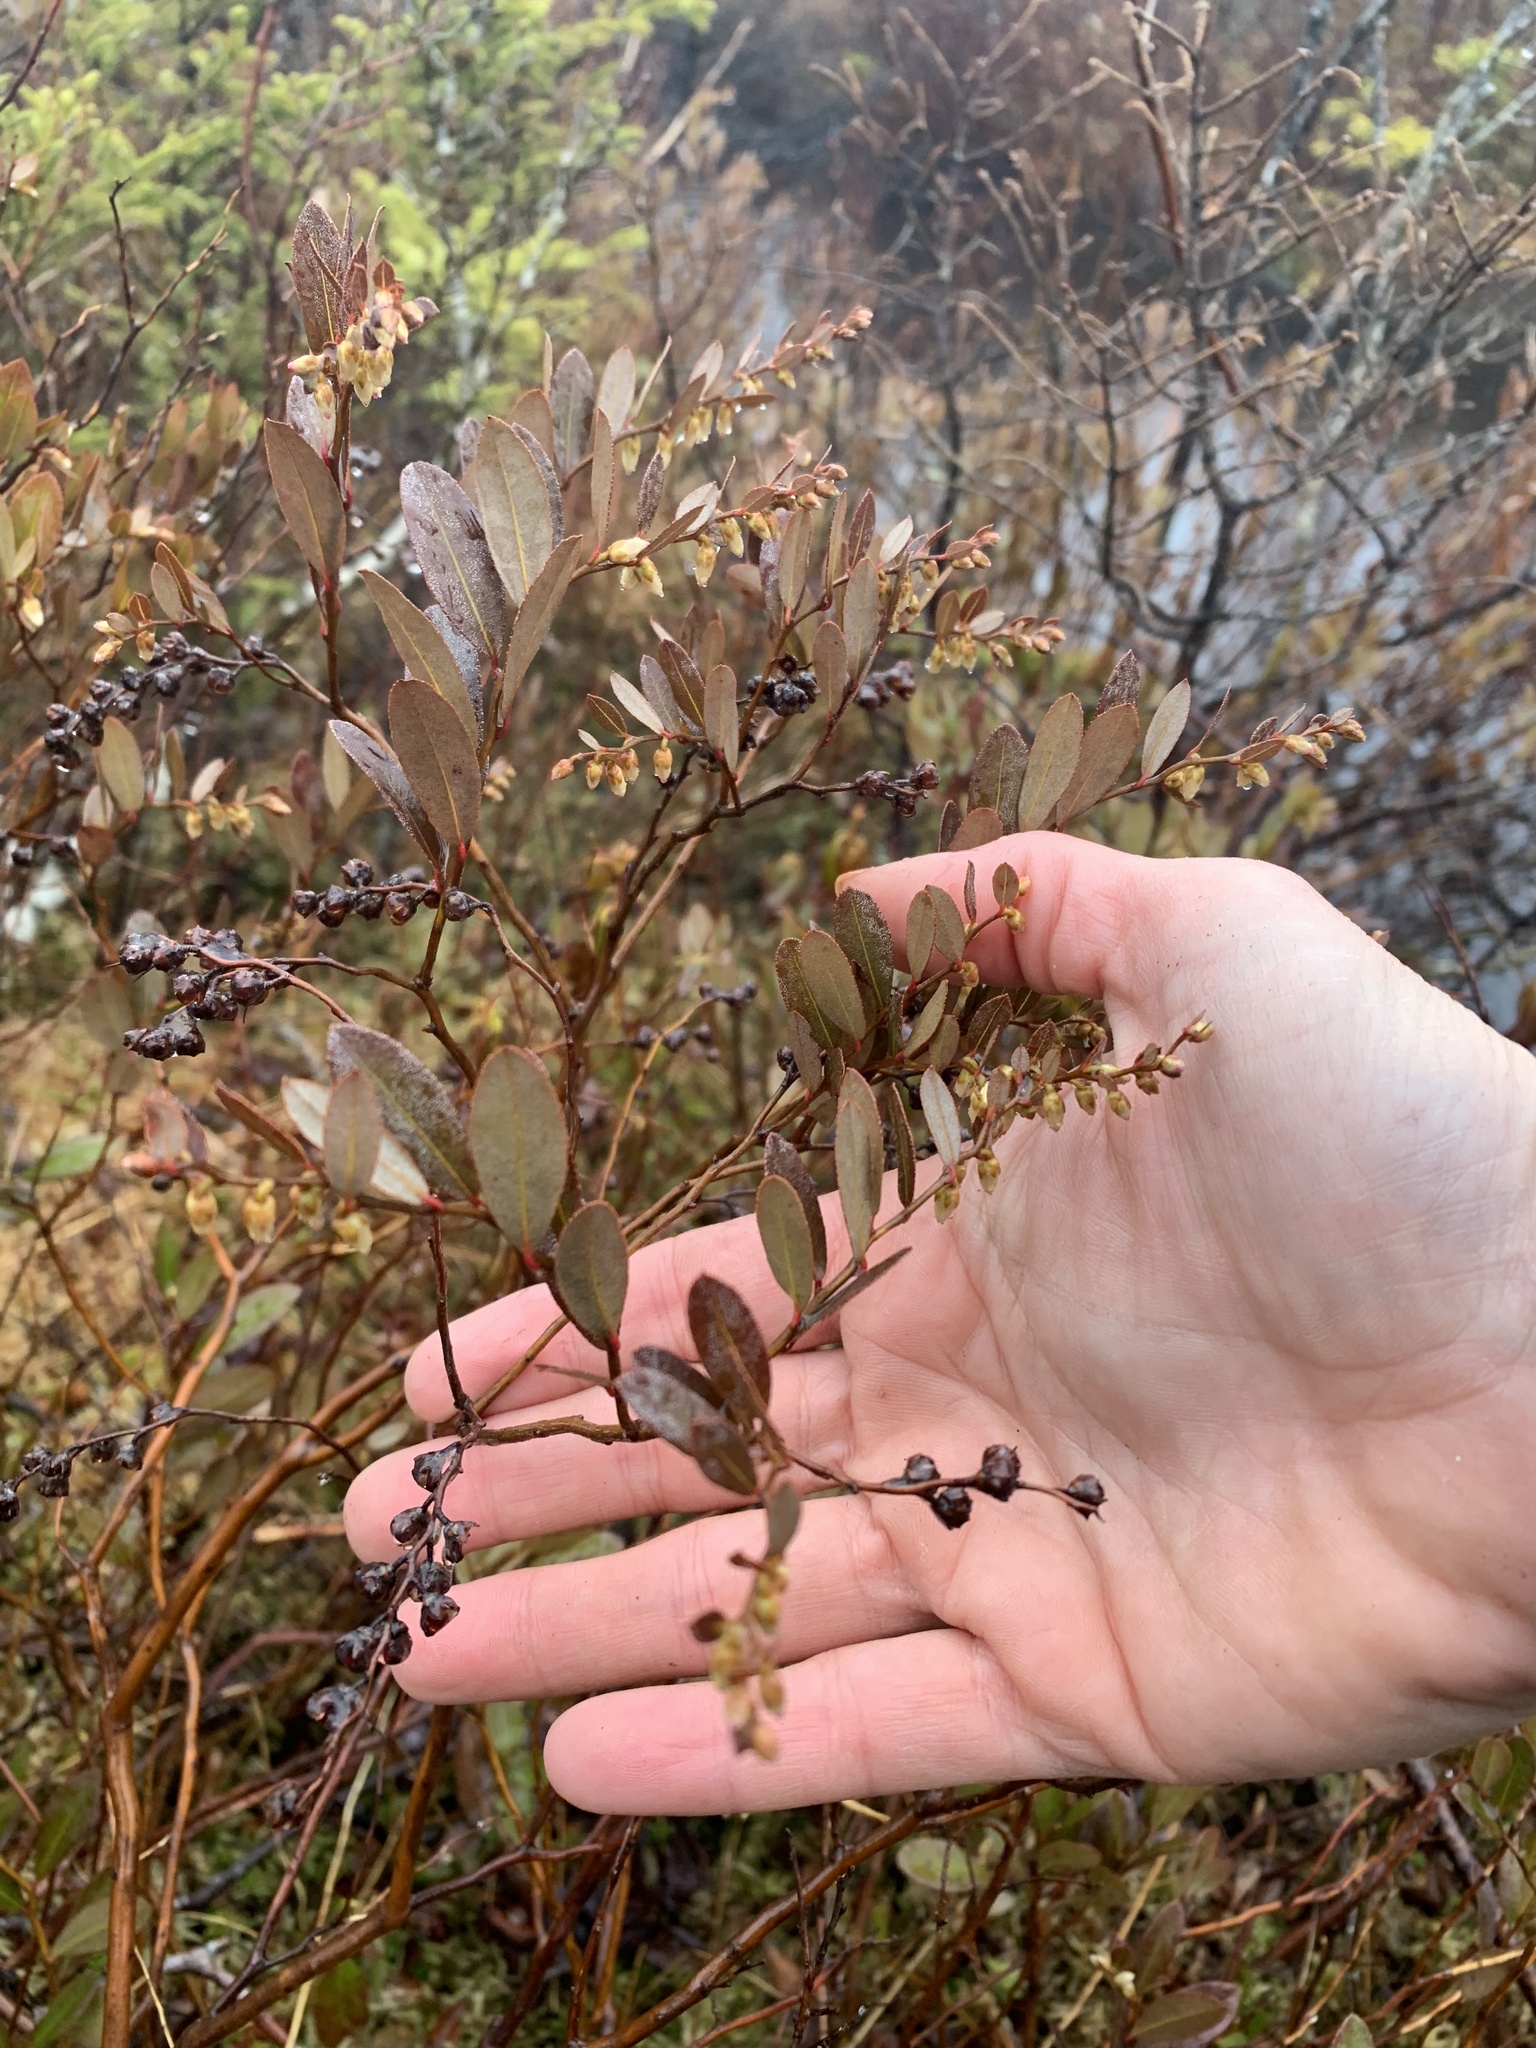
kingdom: Plantae
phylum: Tracheophyta
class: Magnoliopsida
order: Ericales
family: Ericaceae
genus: Chamaedaphne
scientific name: Chamaedaphne calyculata
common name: Leatherleaf
